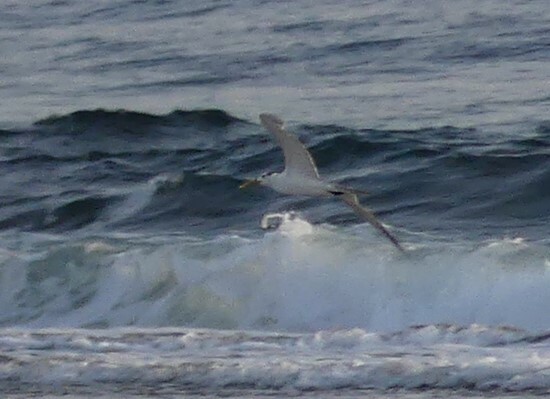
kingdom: Animalia
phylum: Chordata
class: Aves
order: Charadriiformes
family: Laridae
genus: Thalasseus
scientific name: Thalasseus bergii
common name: Greater crested tern
